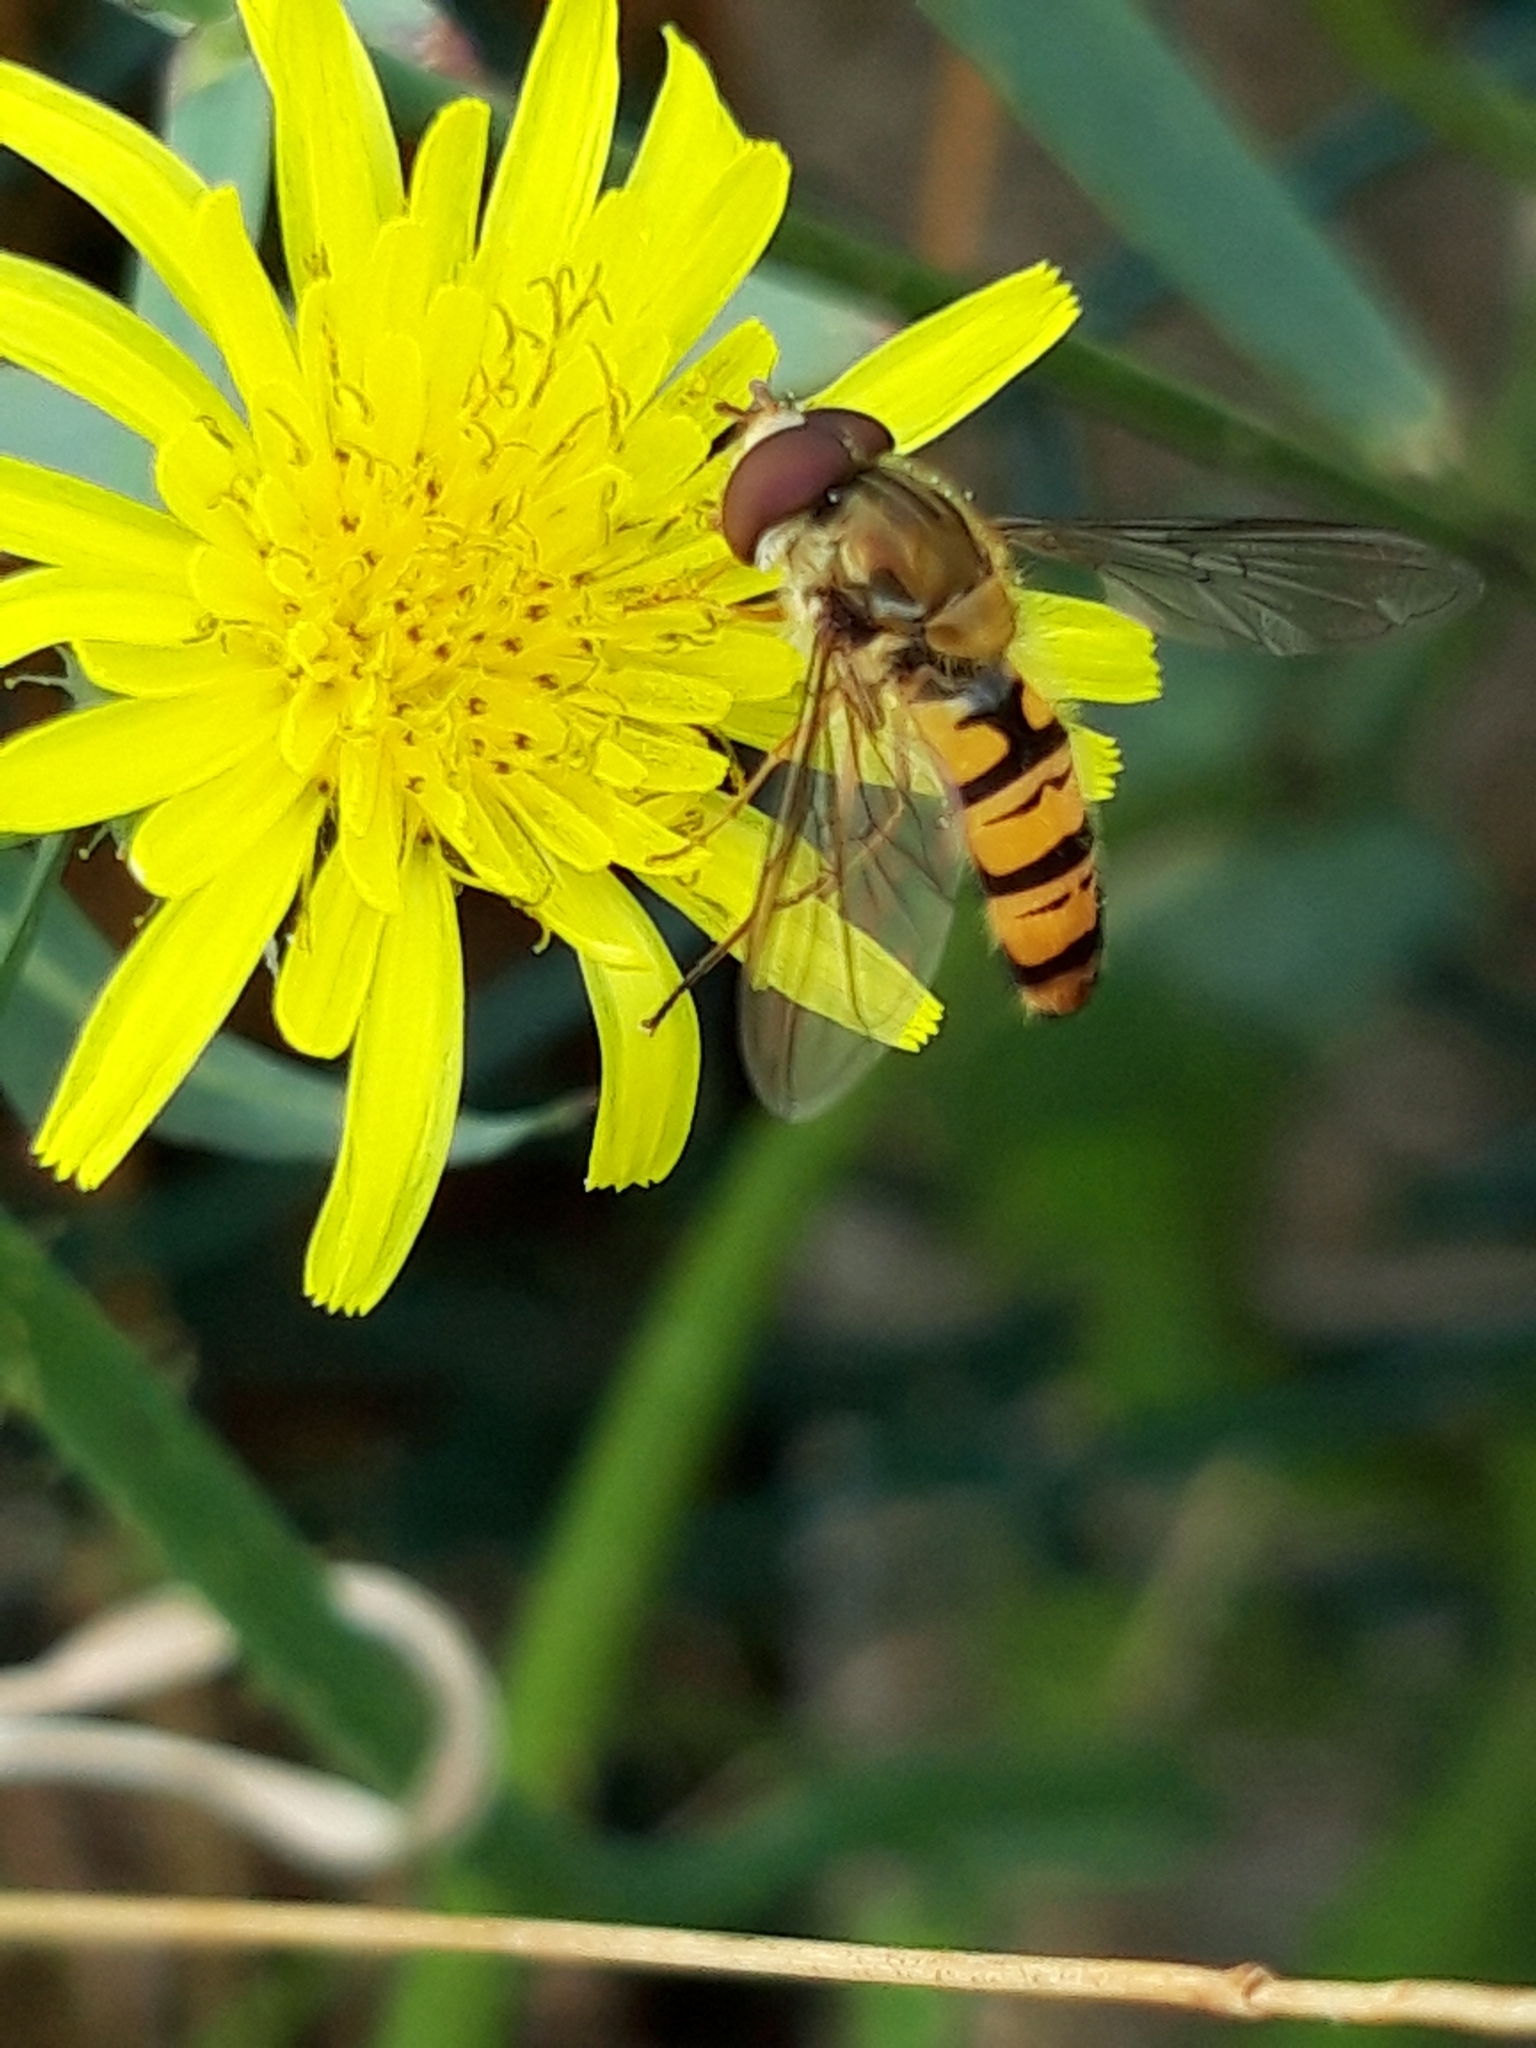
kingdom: Animalia
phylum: Arthropoda
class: Insecta
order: Diptera
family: Syrphidae
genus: Episyrphus
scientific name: Episyrphus balteatus
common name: Marmalade hoverfly
